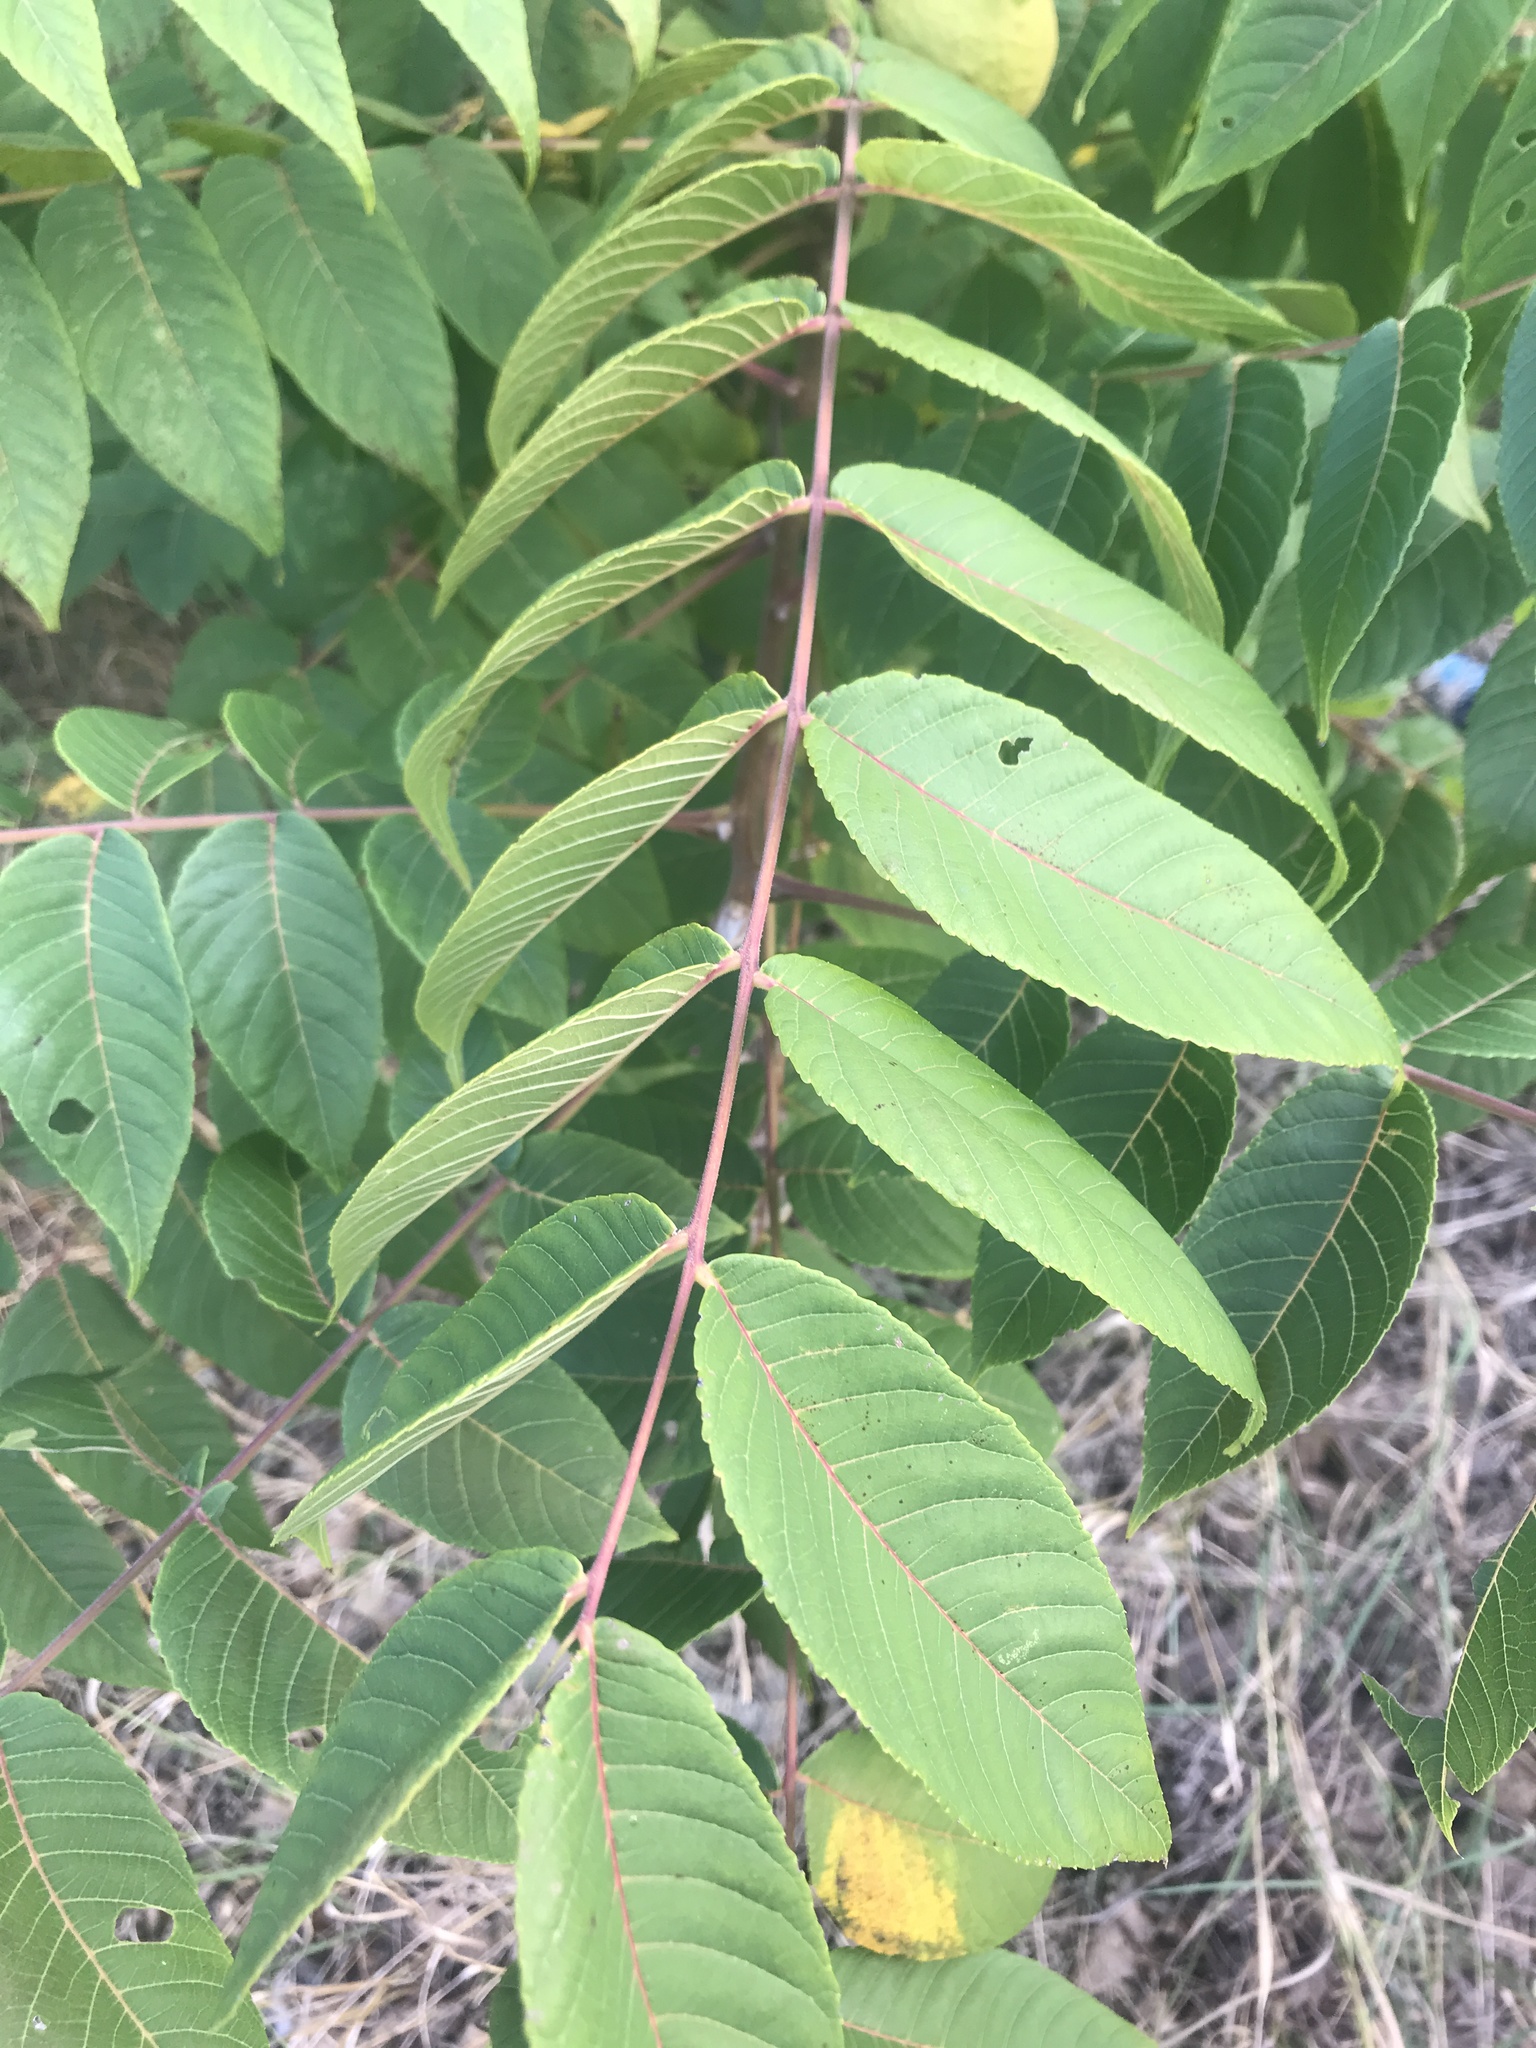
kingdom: Plantae
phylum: Tracheophyta
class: Magnoliopsida
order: Fagales
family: Juglandaceae
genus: Juglans
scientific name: Juglans nigra
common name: Black walnut
